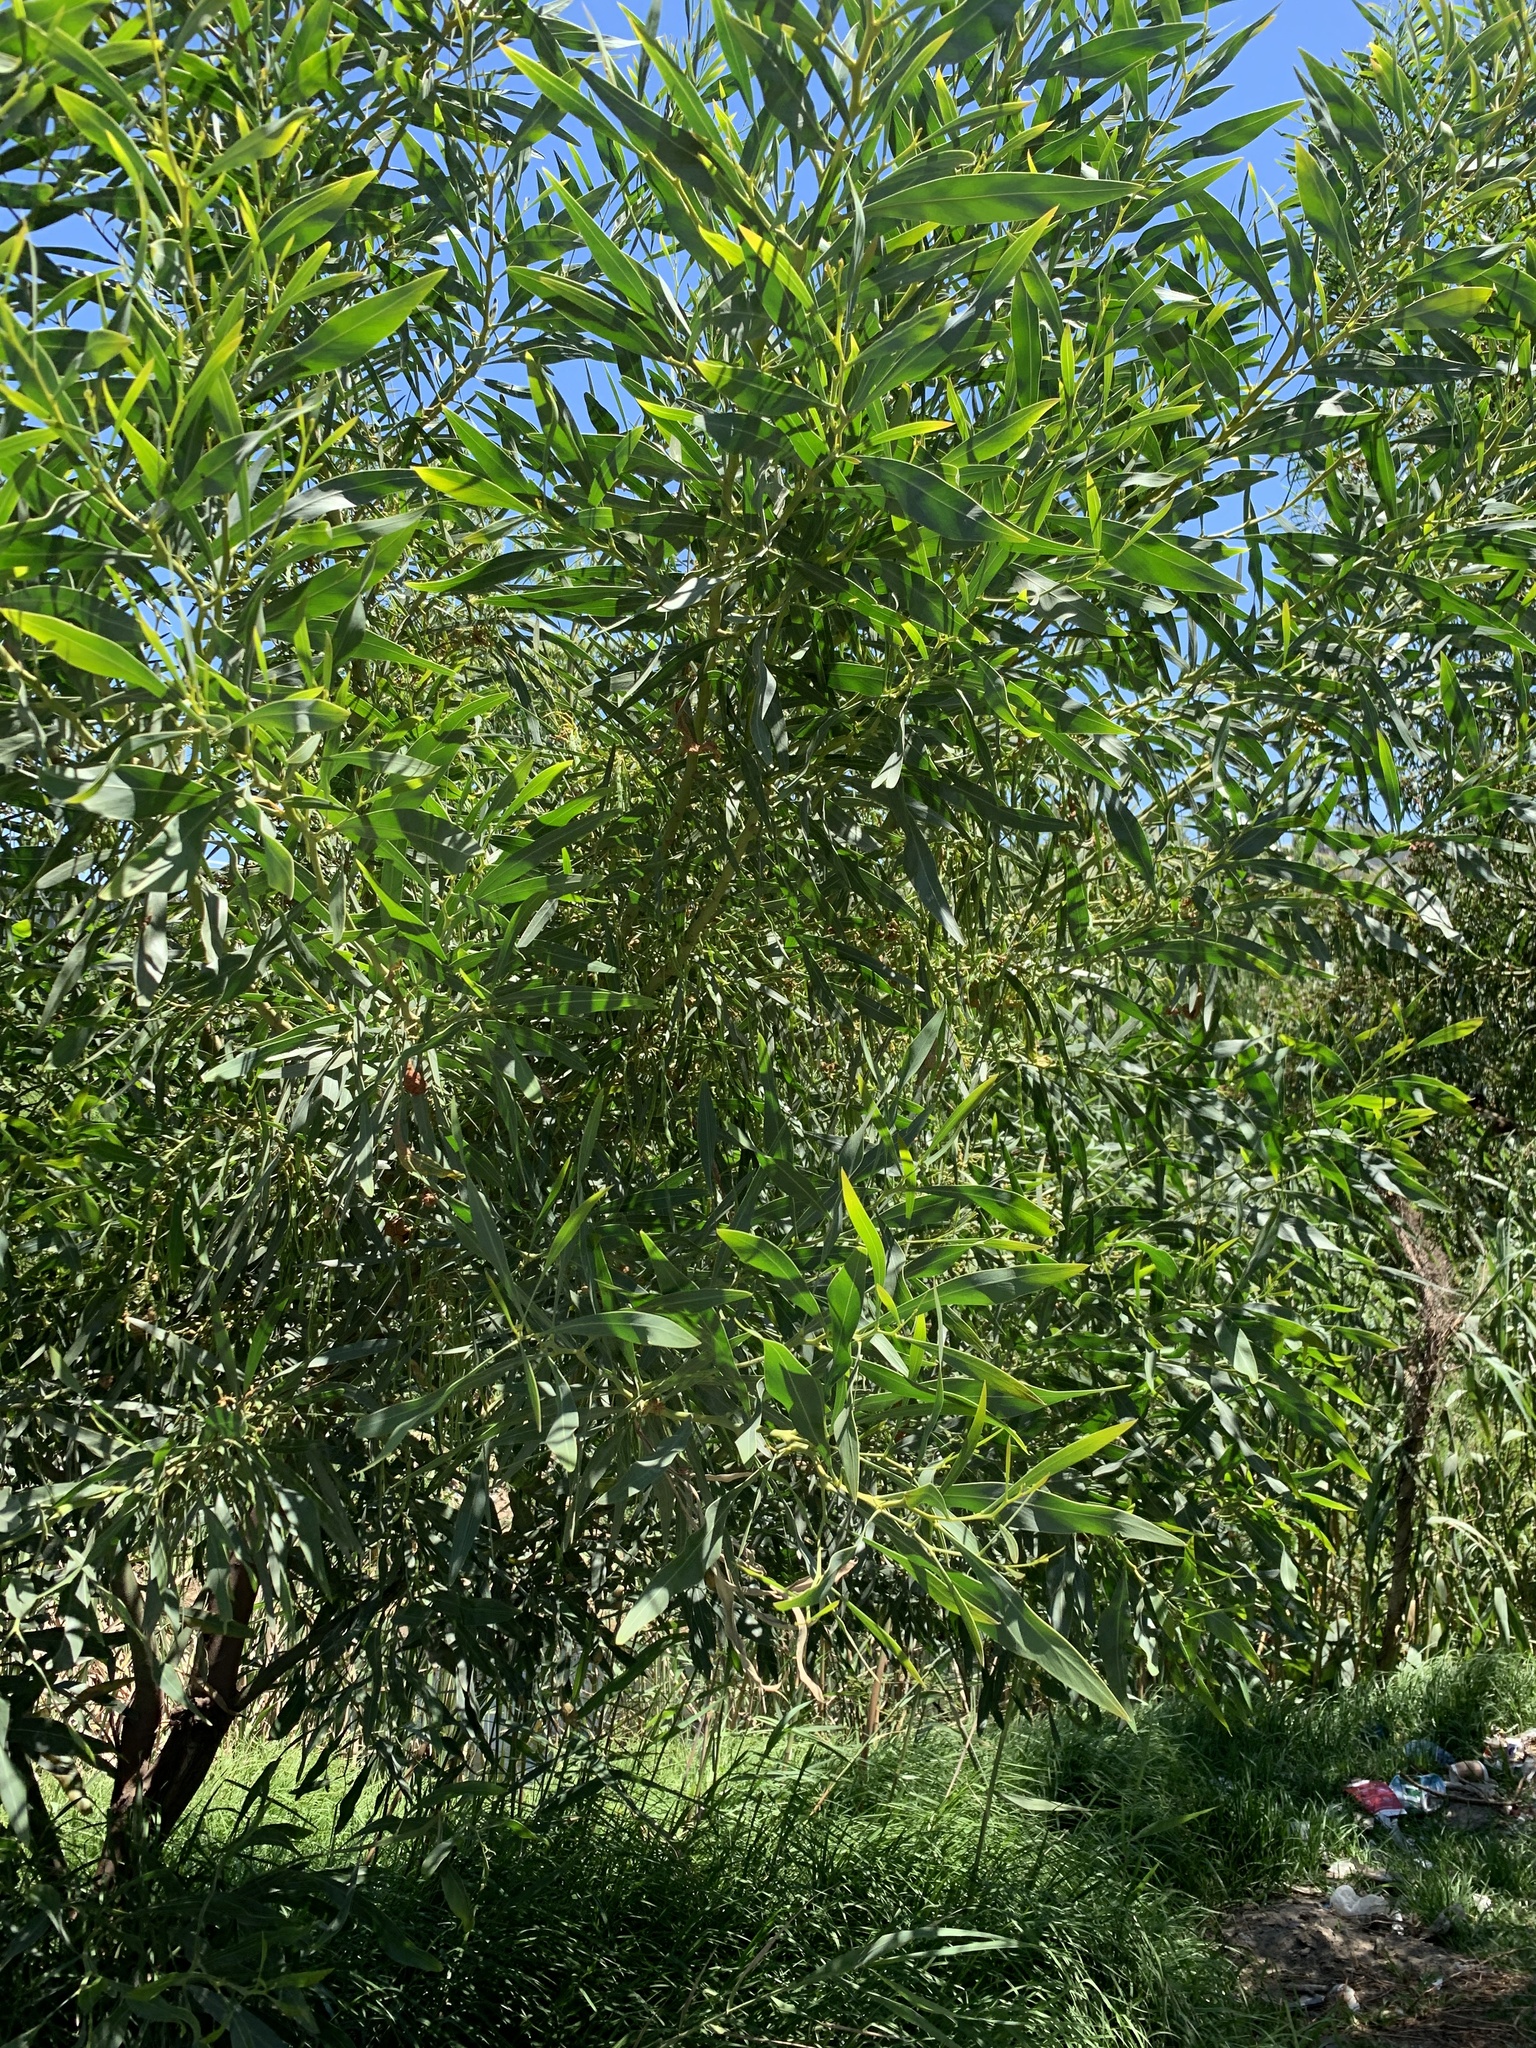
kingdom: Plantae
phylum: Tracheophyta
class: Magnoliopsida
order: Fabales
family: Fabaceae
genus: Acacia
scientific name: Acacia saligna
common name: Orange wattle
